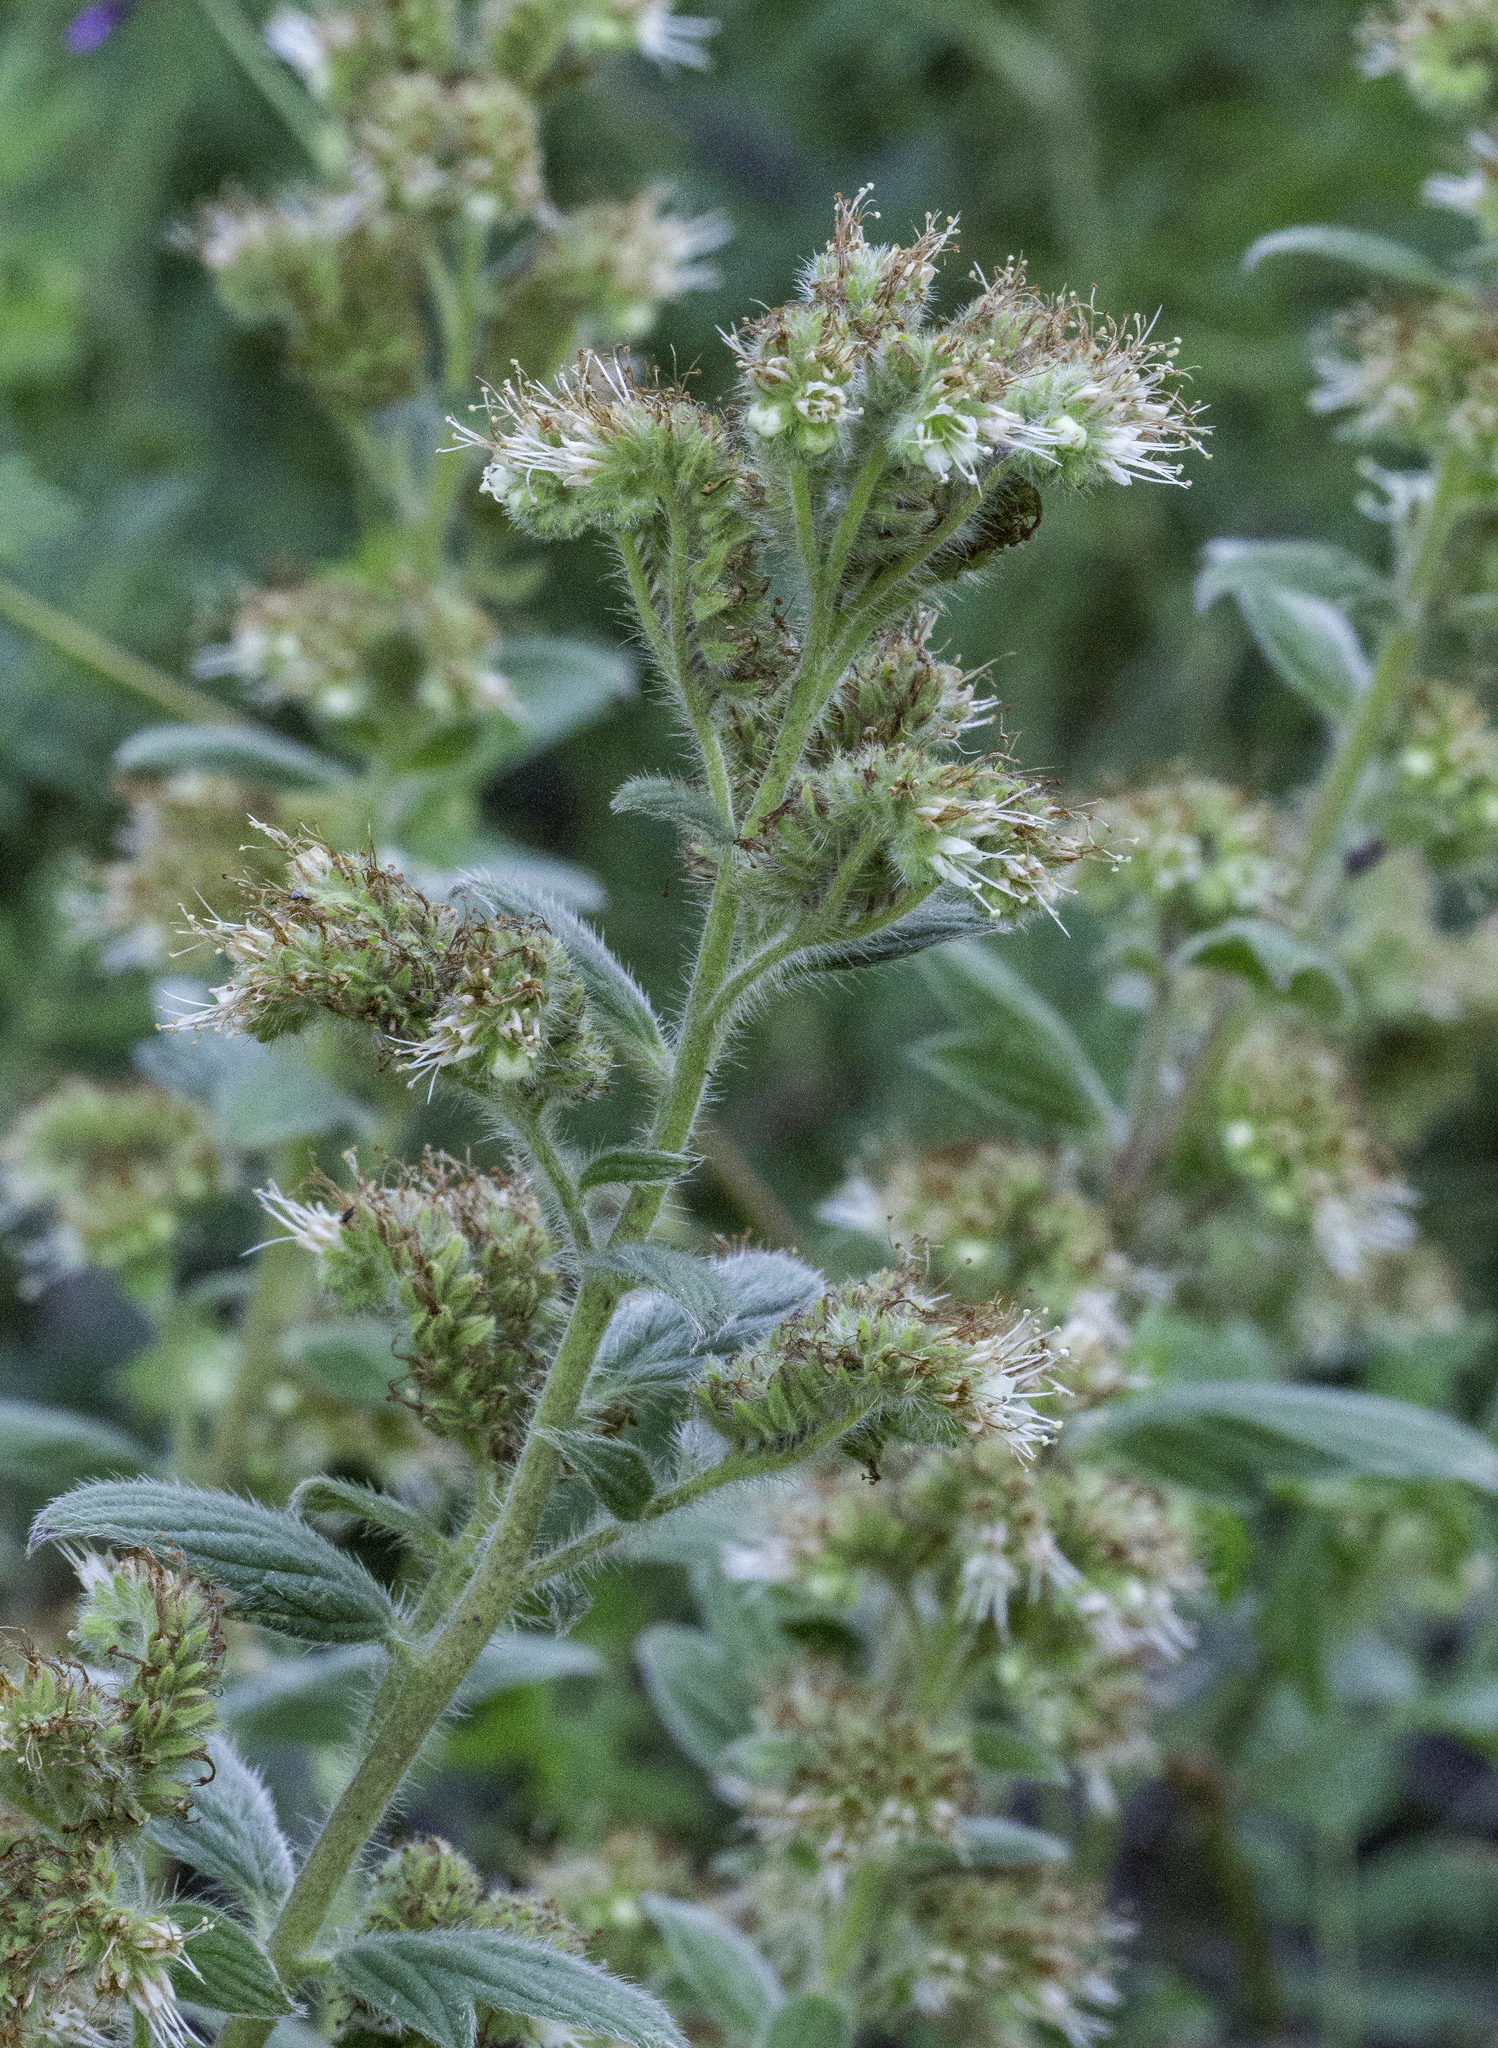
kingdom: Plantae
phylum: Tracheophyta
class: Magnoliopsida
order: Boraginales
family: Hydrophyllaceae
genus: Phacelia
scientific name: Phacelia heterophylla
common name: Variable-leaved phacelia
